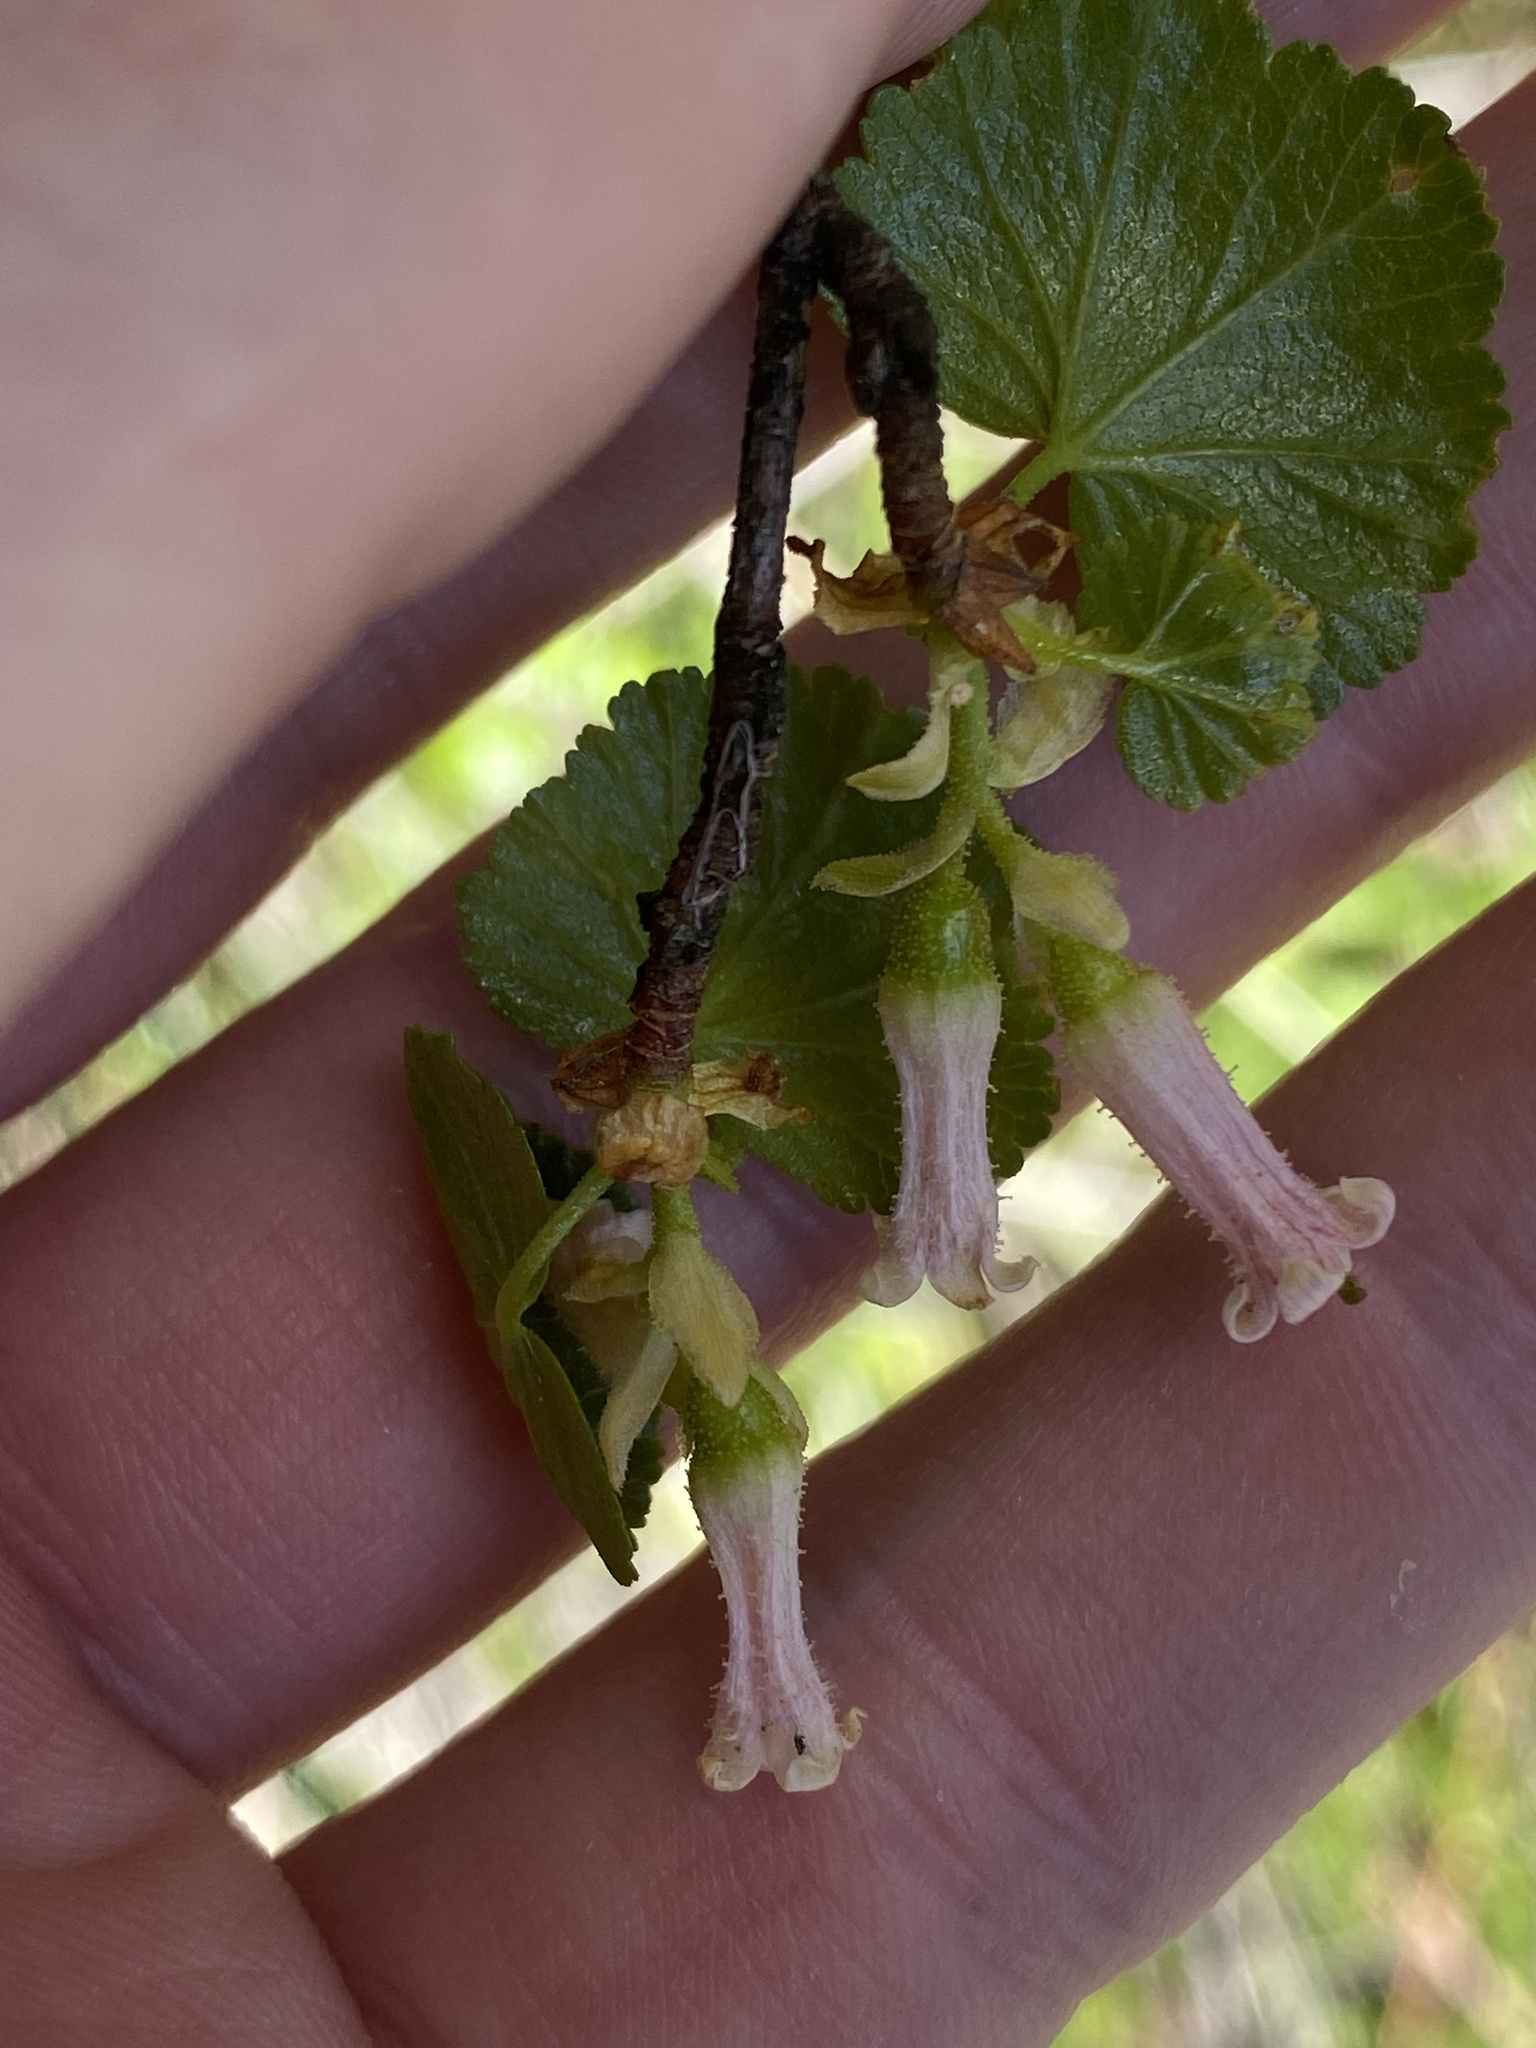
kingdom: Plantae
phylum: Tracheophyta
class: Magnoliopsida
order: Saxifragales
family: Grossulariaceae
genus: Ribes
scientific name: Ribes cereum
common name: Wax currant
